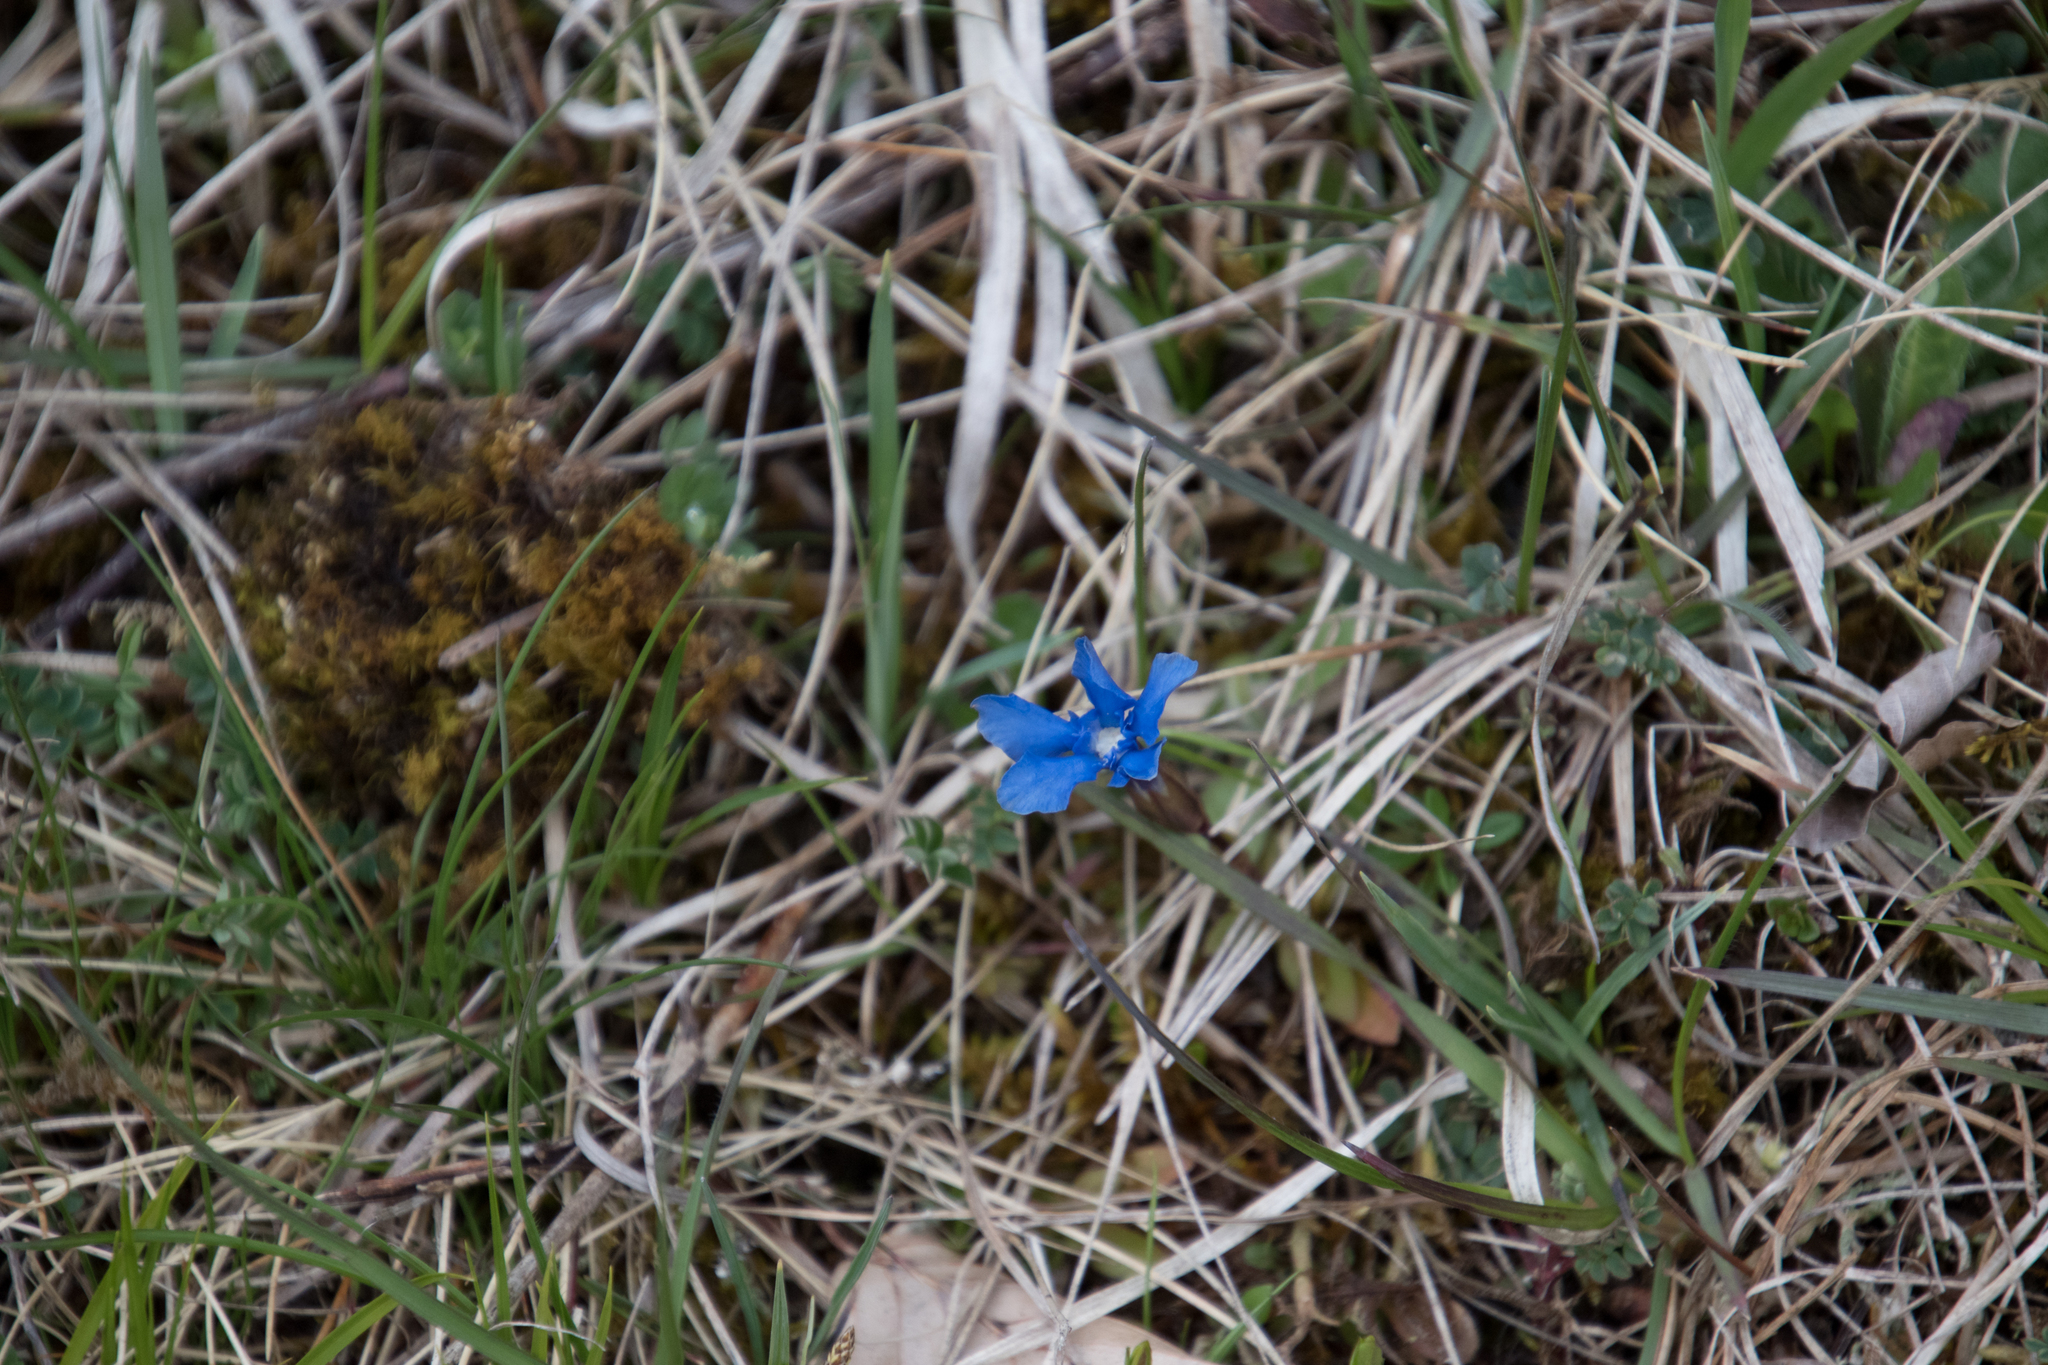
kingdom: Plantae
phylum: Tracheophyta
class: Magnoliopsida
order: Gentianales
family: Gentianaceae
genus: Gentiana
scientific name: Gentiana verna
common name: Spring gentian
